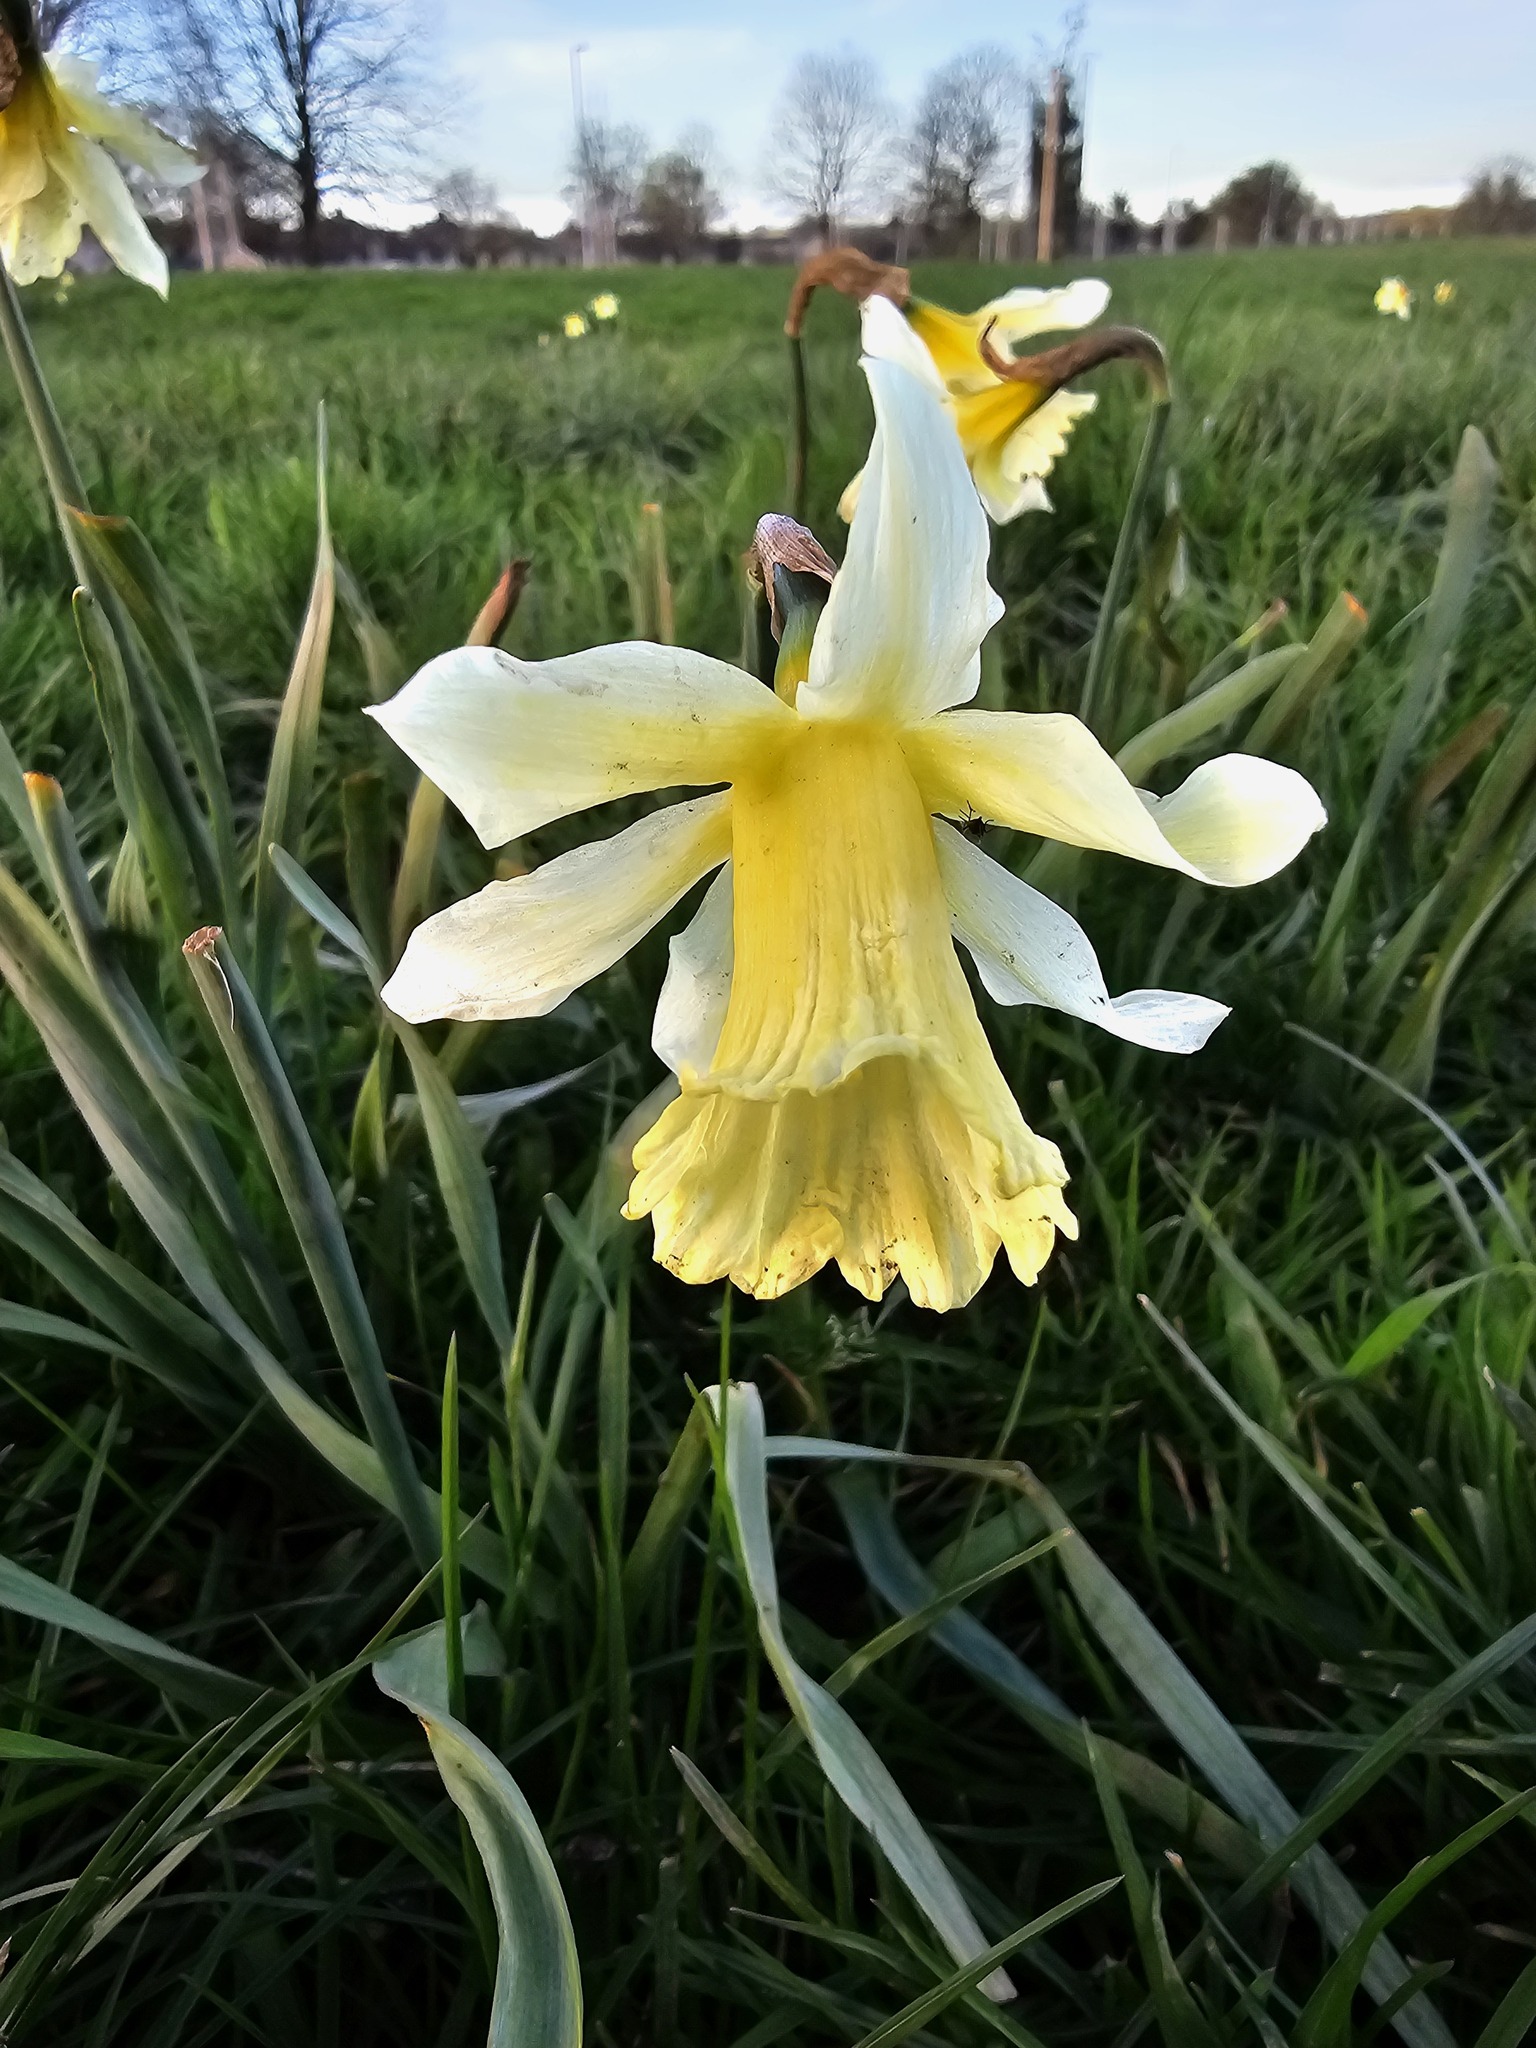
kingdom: Plantae
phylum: Tracheophyta
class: Liliopsida
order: Asparagales
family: Amaryllidaceae
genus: Narcissus
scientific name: Narcissus pseudonarcissus
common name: Daffodil
